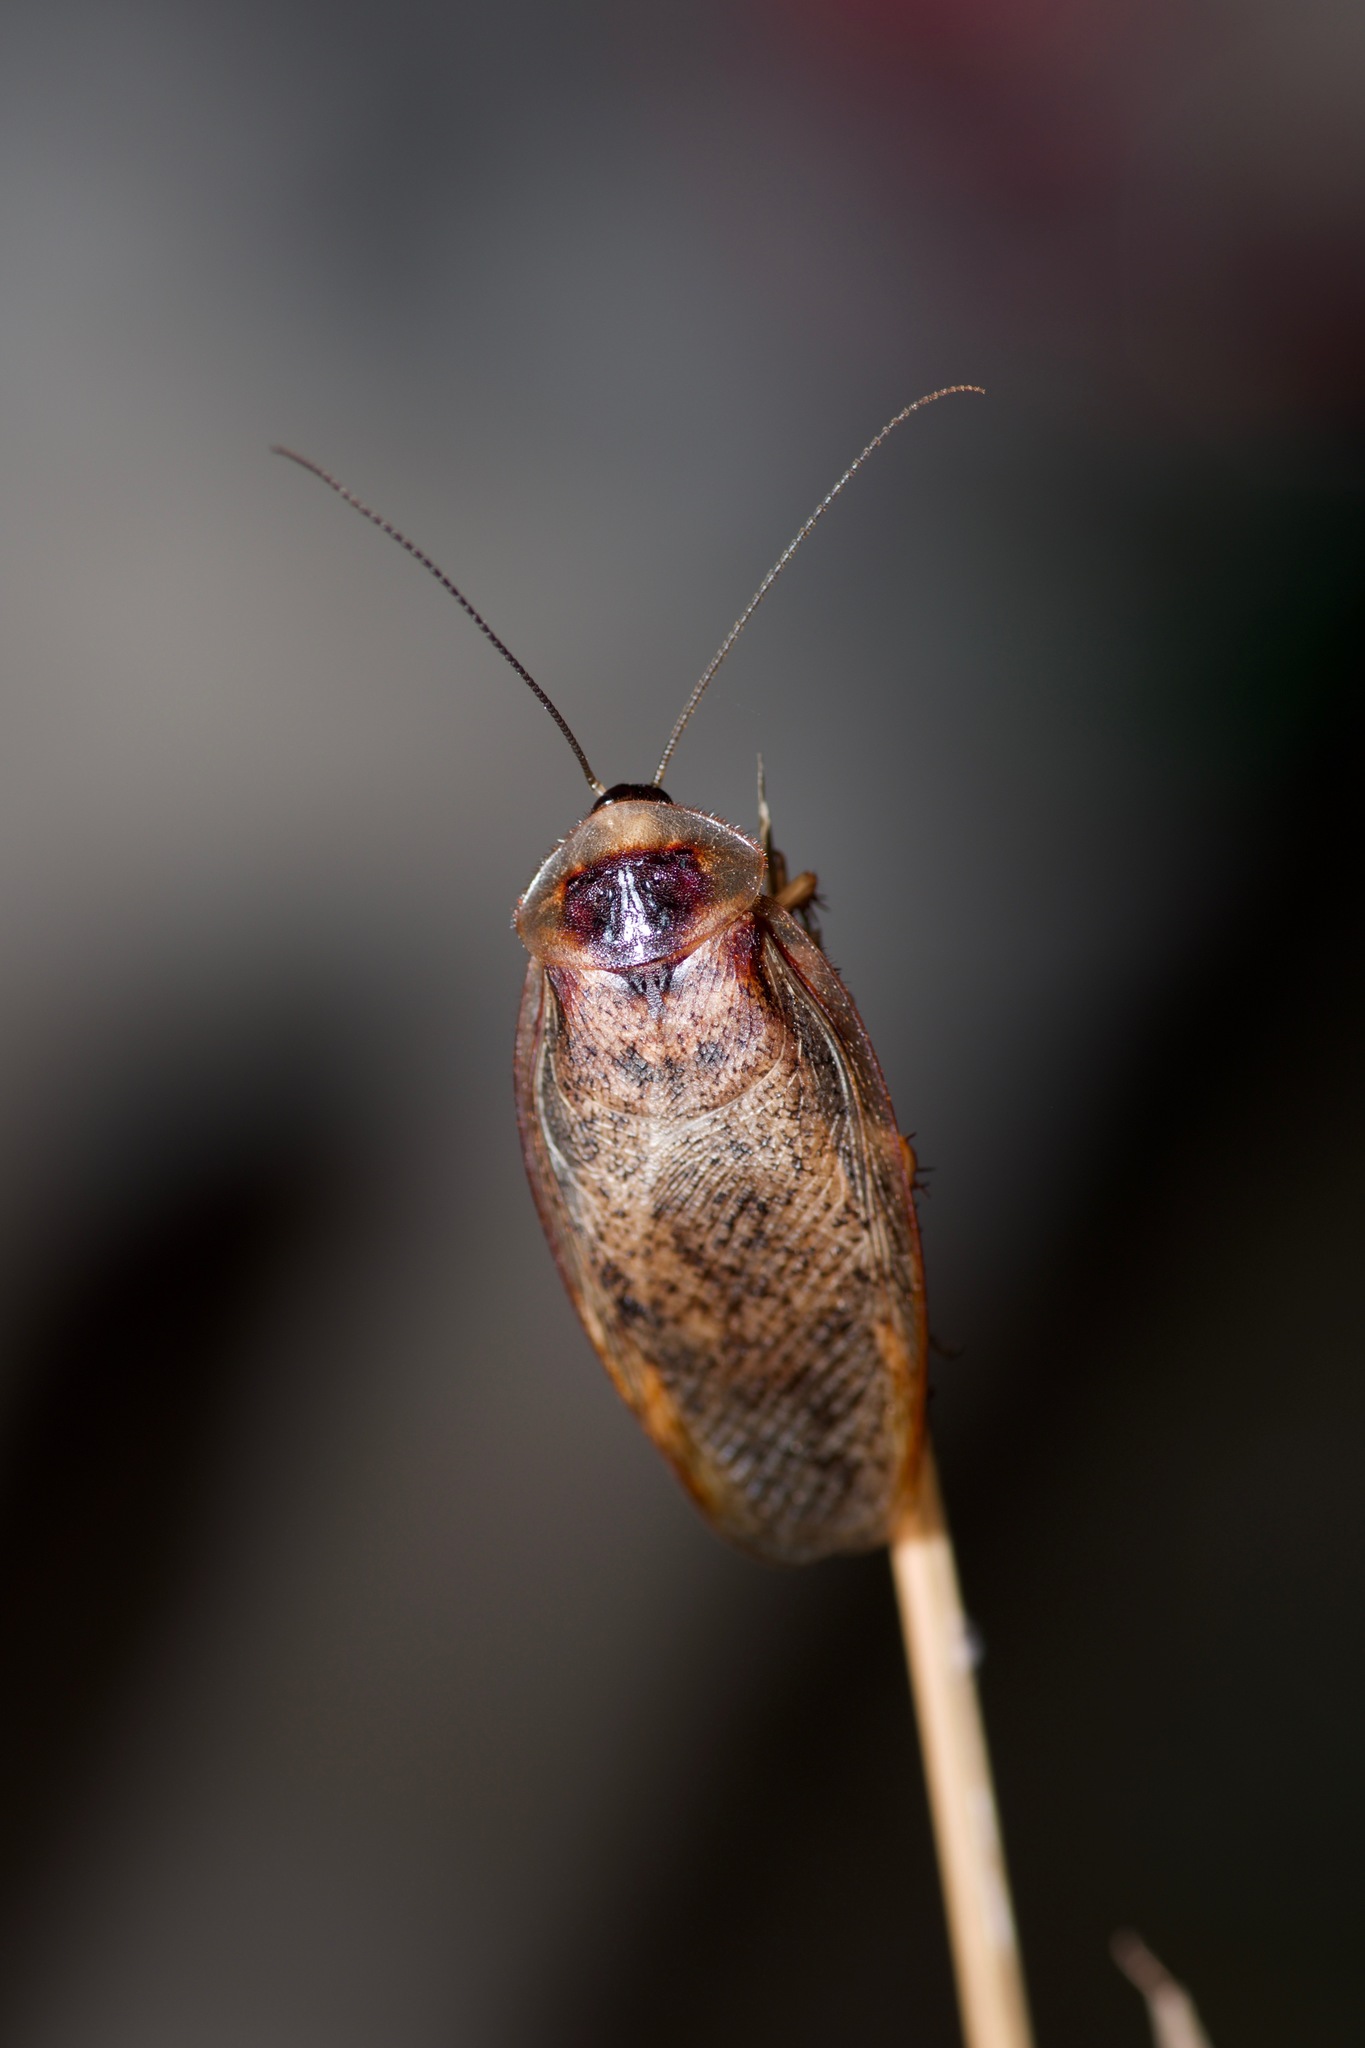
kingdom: Animalia
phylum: Arthropoda
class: Insecta
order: Blattodea
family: Corydiidae
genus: Arenivaga
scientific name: Arenivaga bolliana
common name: Boll's sand cockroach
